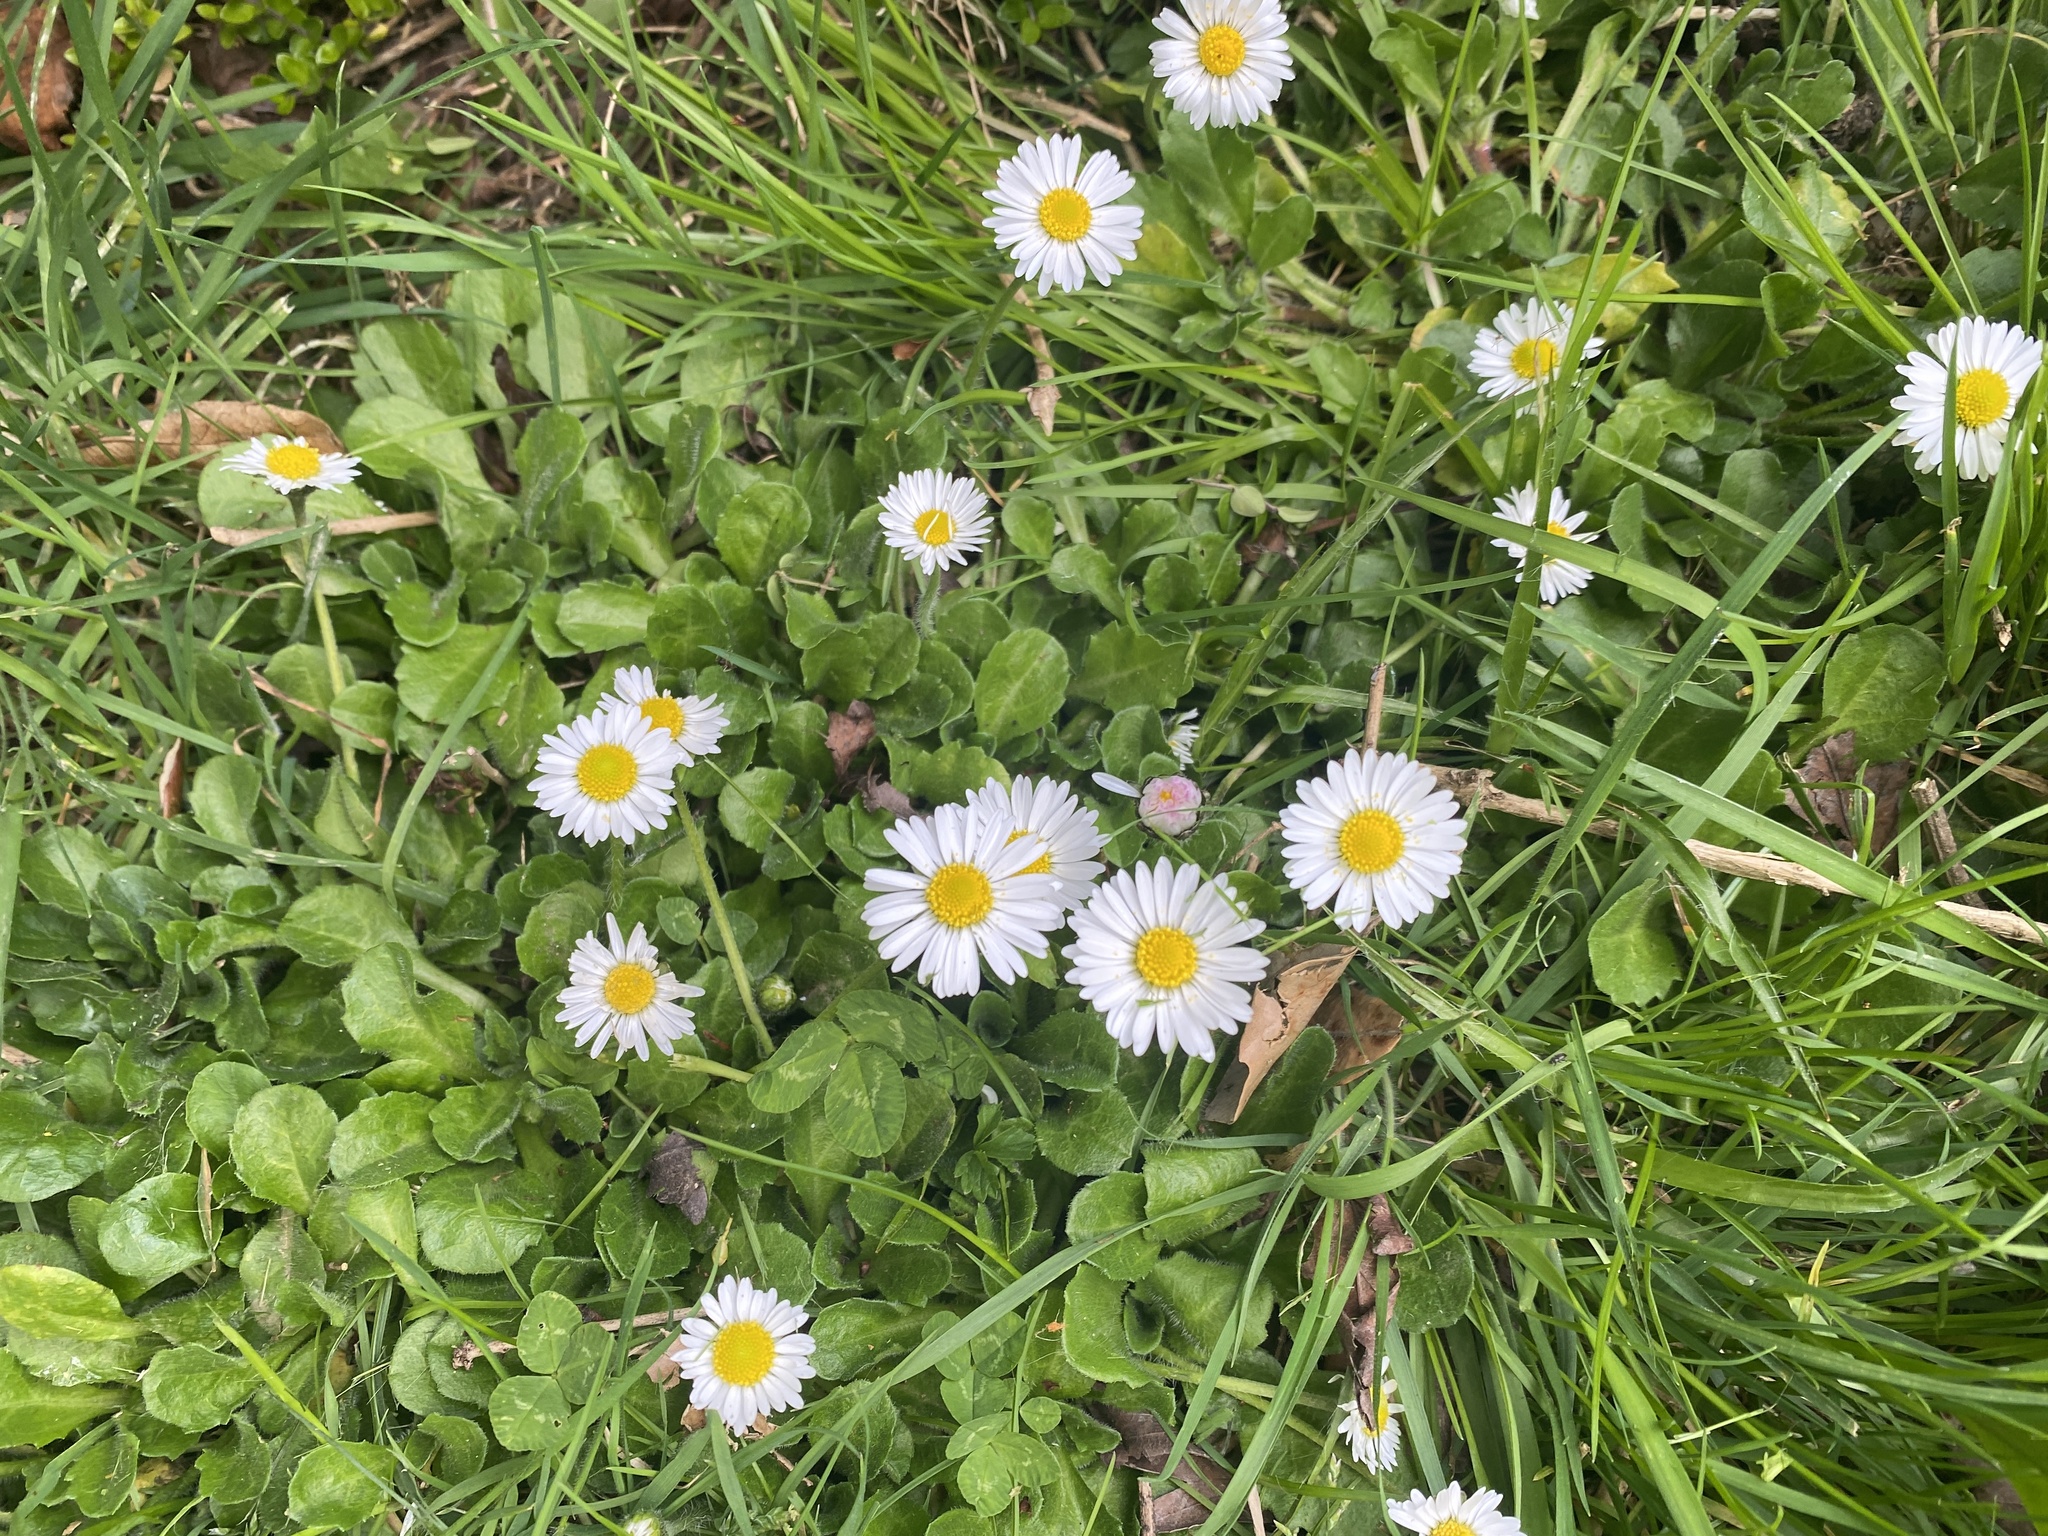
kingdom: Plantae
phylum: Tracheophyta
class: Magnoliopsida
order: Asterales
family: Asteraceae
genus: Bellis
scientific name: Bellis perennis
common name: Lawndaisy
